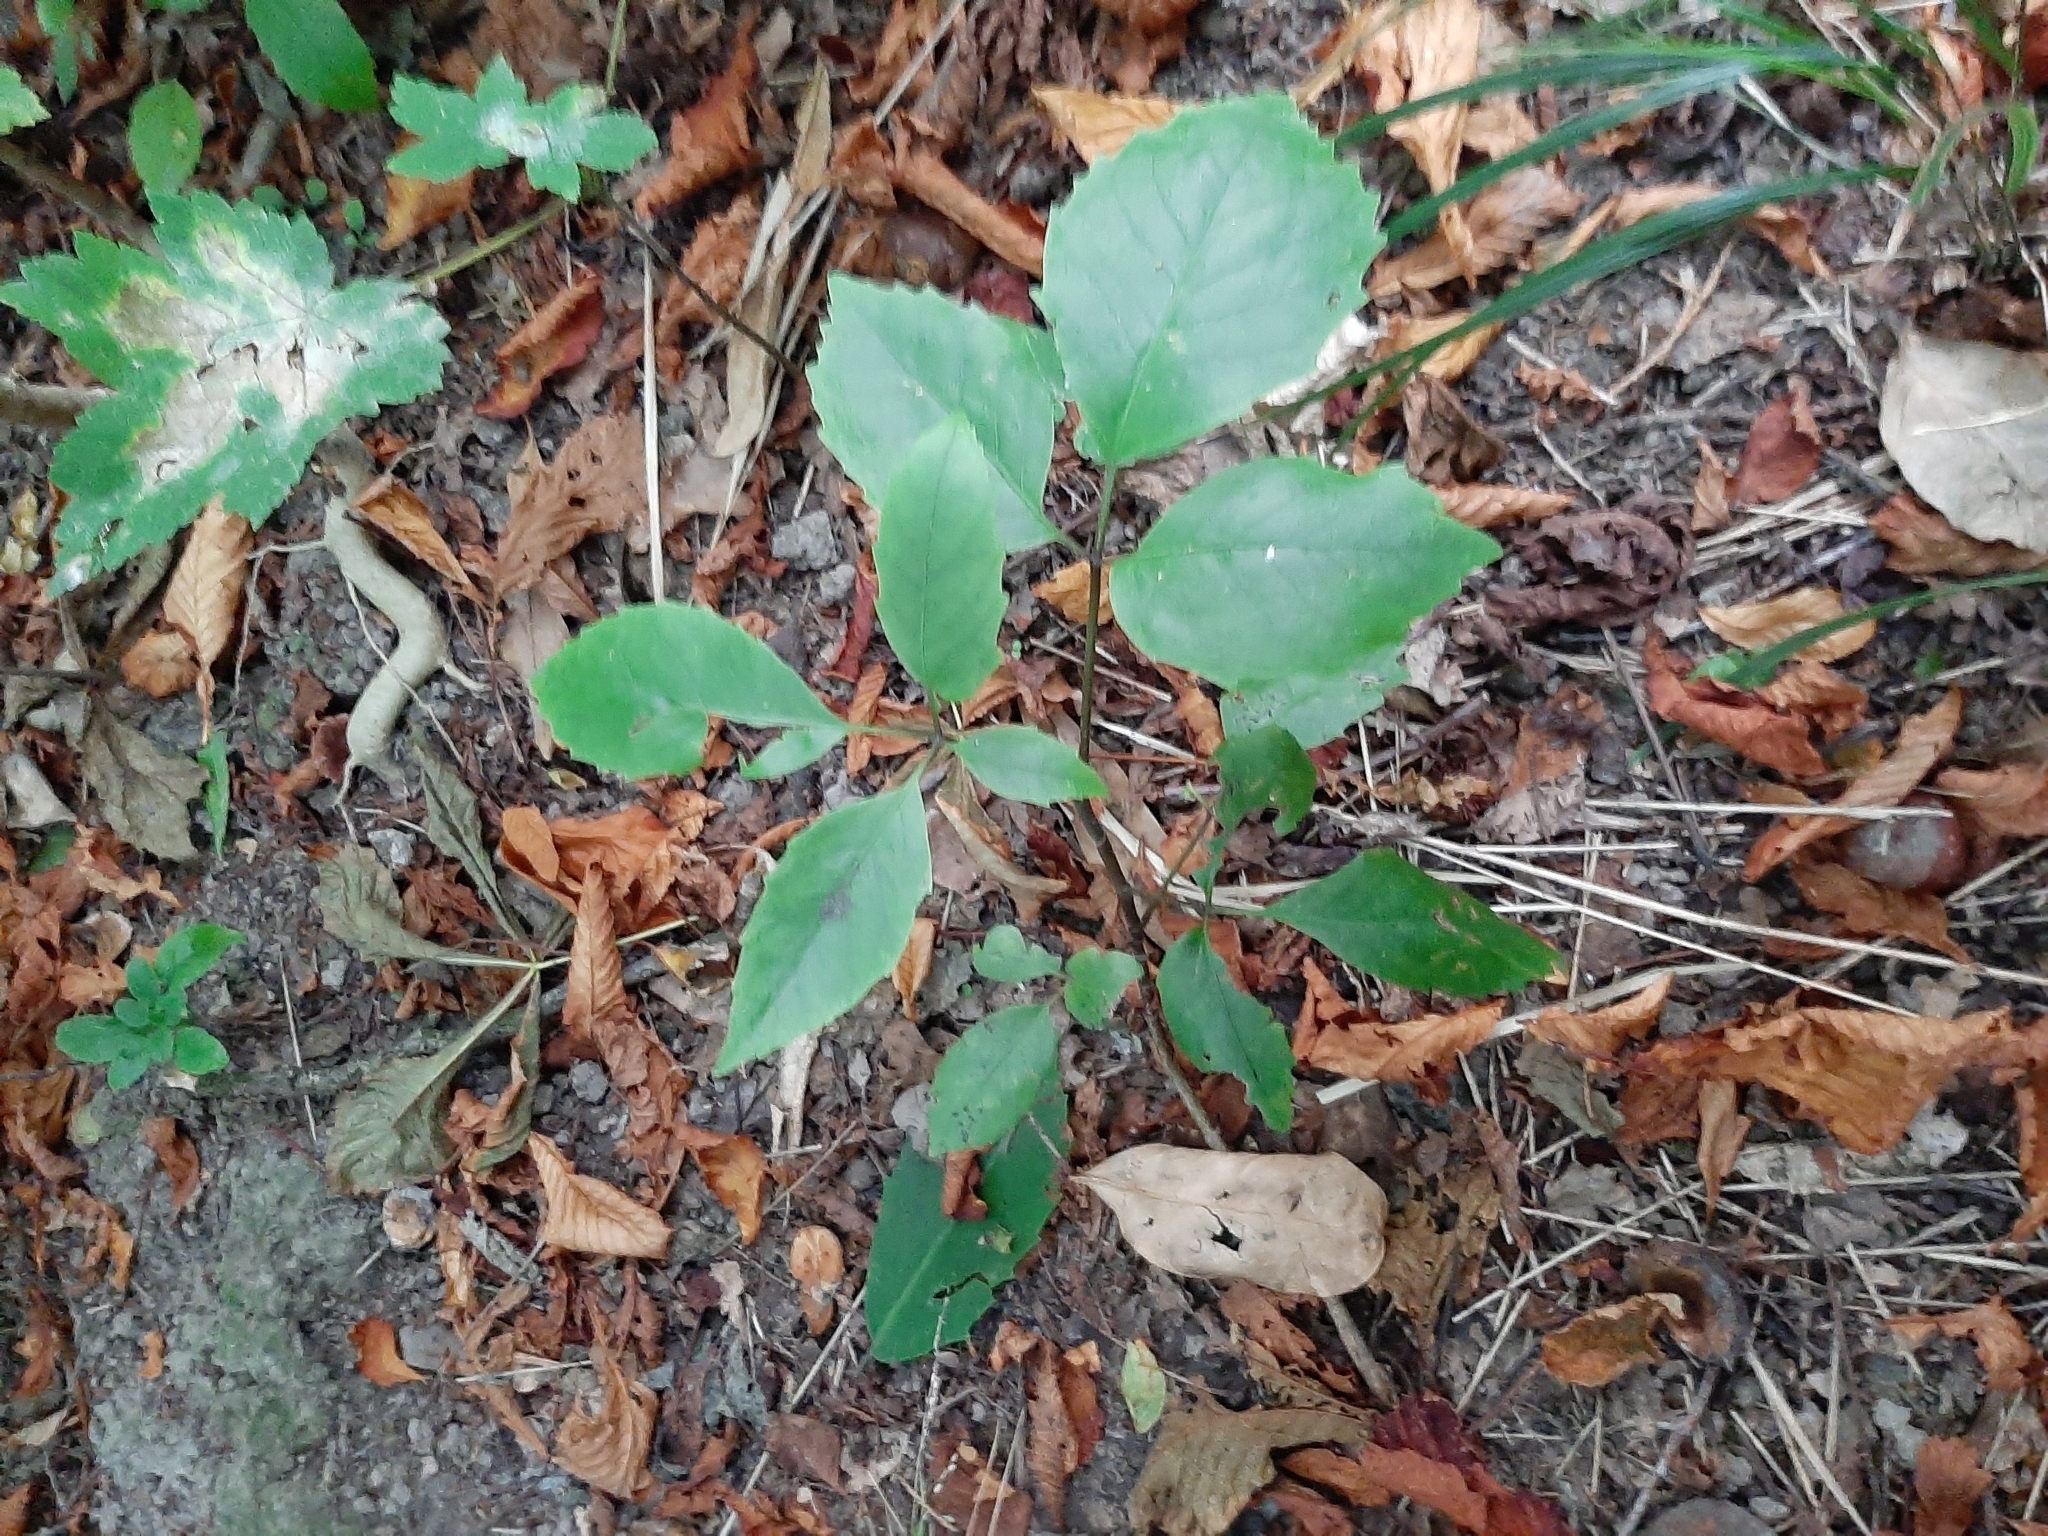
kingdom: Plantae
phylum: Tracheophyta
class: Magnoliopsida
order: Apiales
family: Araliaceae
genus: Neopanax
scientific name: Neopanax arboreus
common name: Five-fingers
